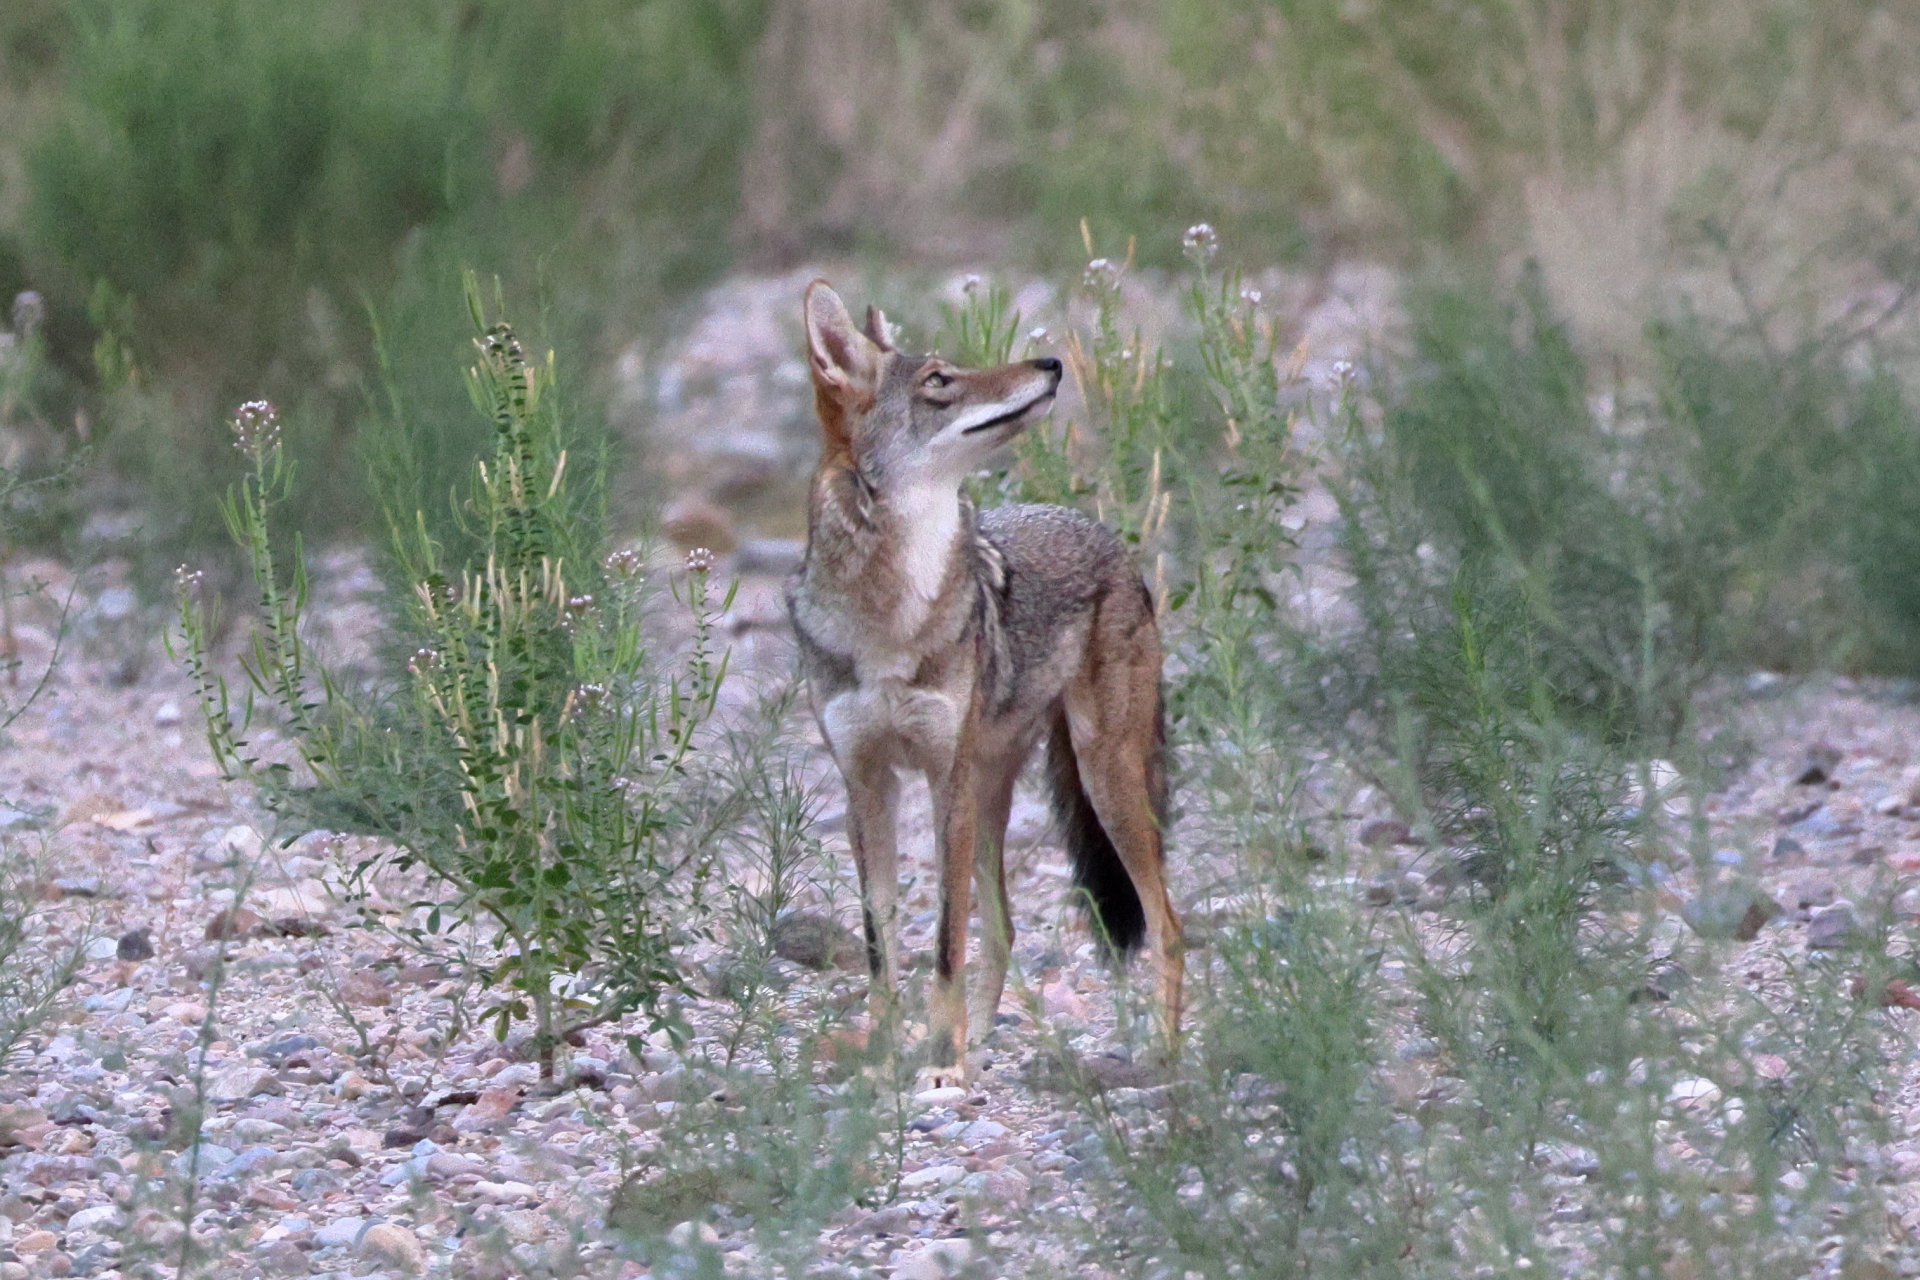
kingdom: Animalia
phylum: Chordata
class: Mammalia
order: Carnivora
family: Canidae
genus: Canis
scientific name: Canis latrans
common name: Coyote
